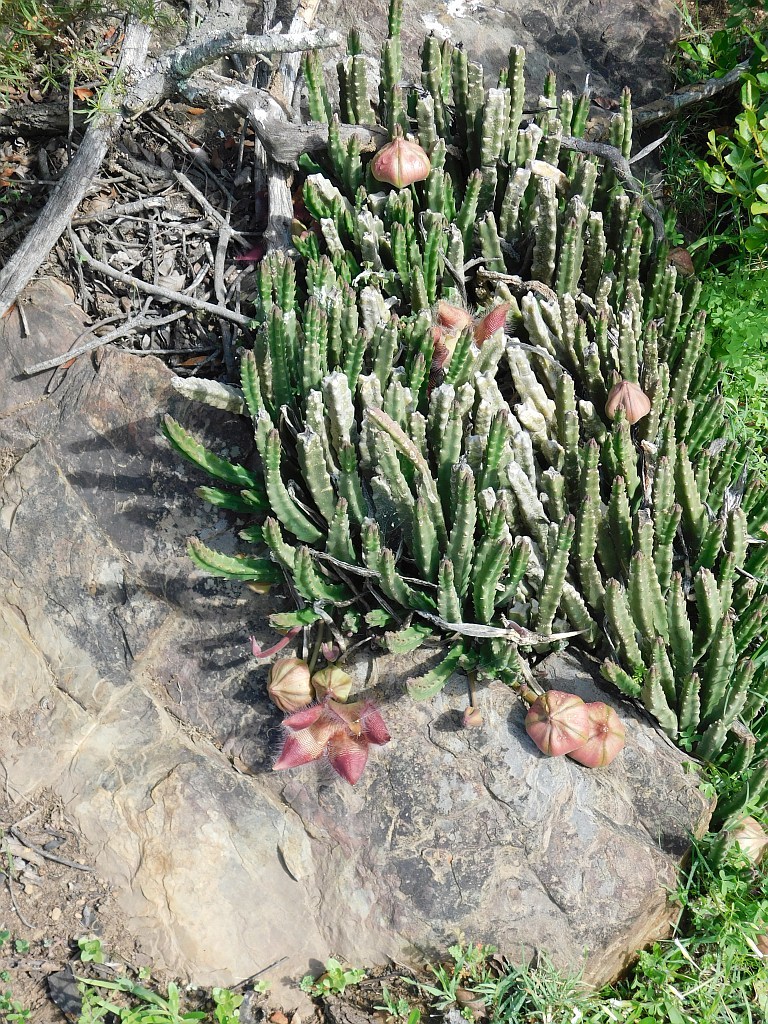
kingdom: Plantae
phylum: Tracheophyta
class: Magnoliopsida
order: Gentianales
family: Apocynaceae
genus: Ceropegia
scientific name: Ceropegia pulvinata
